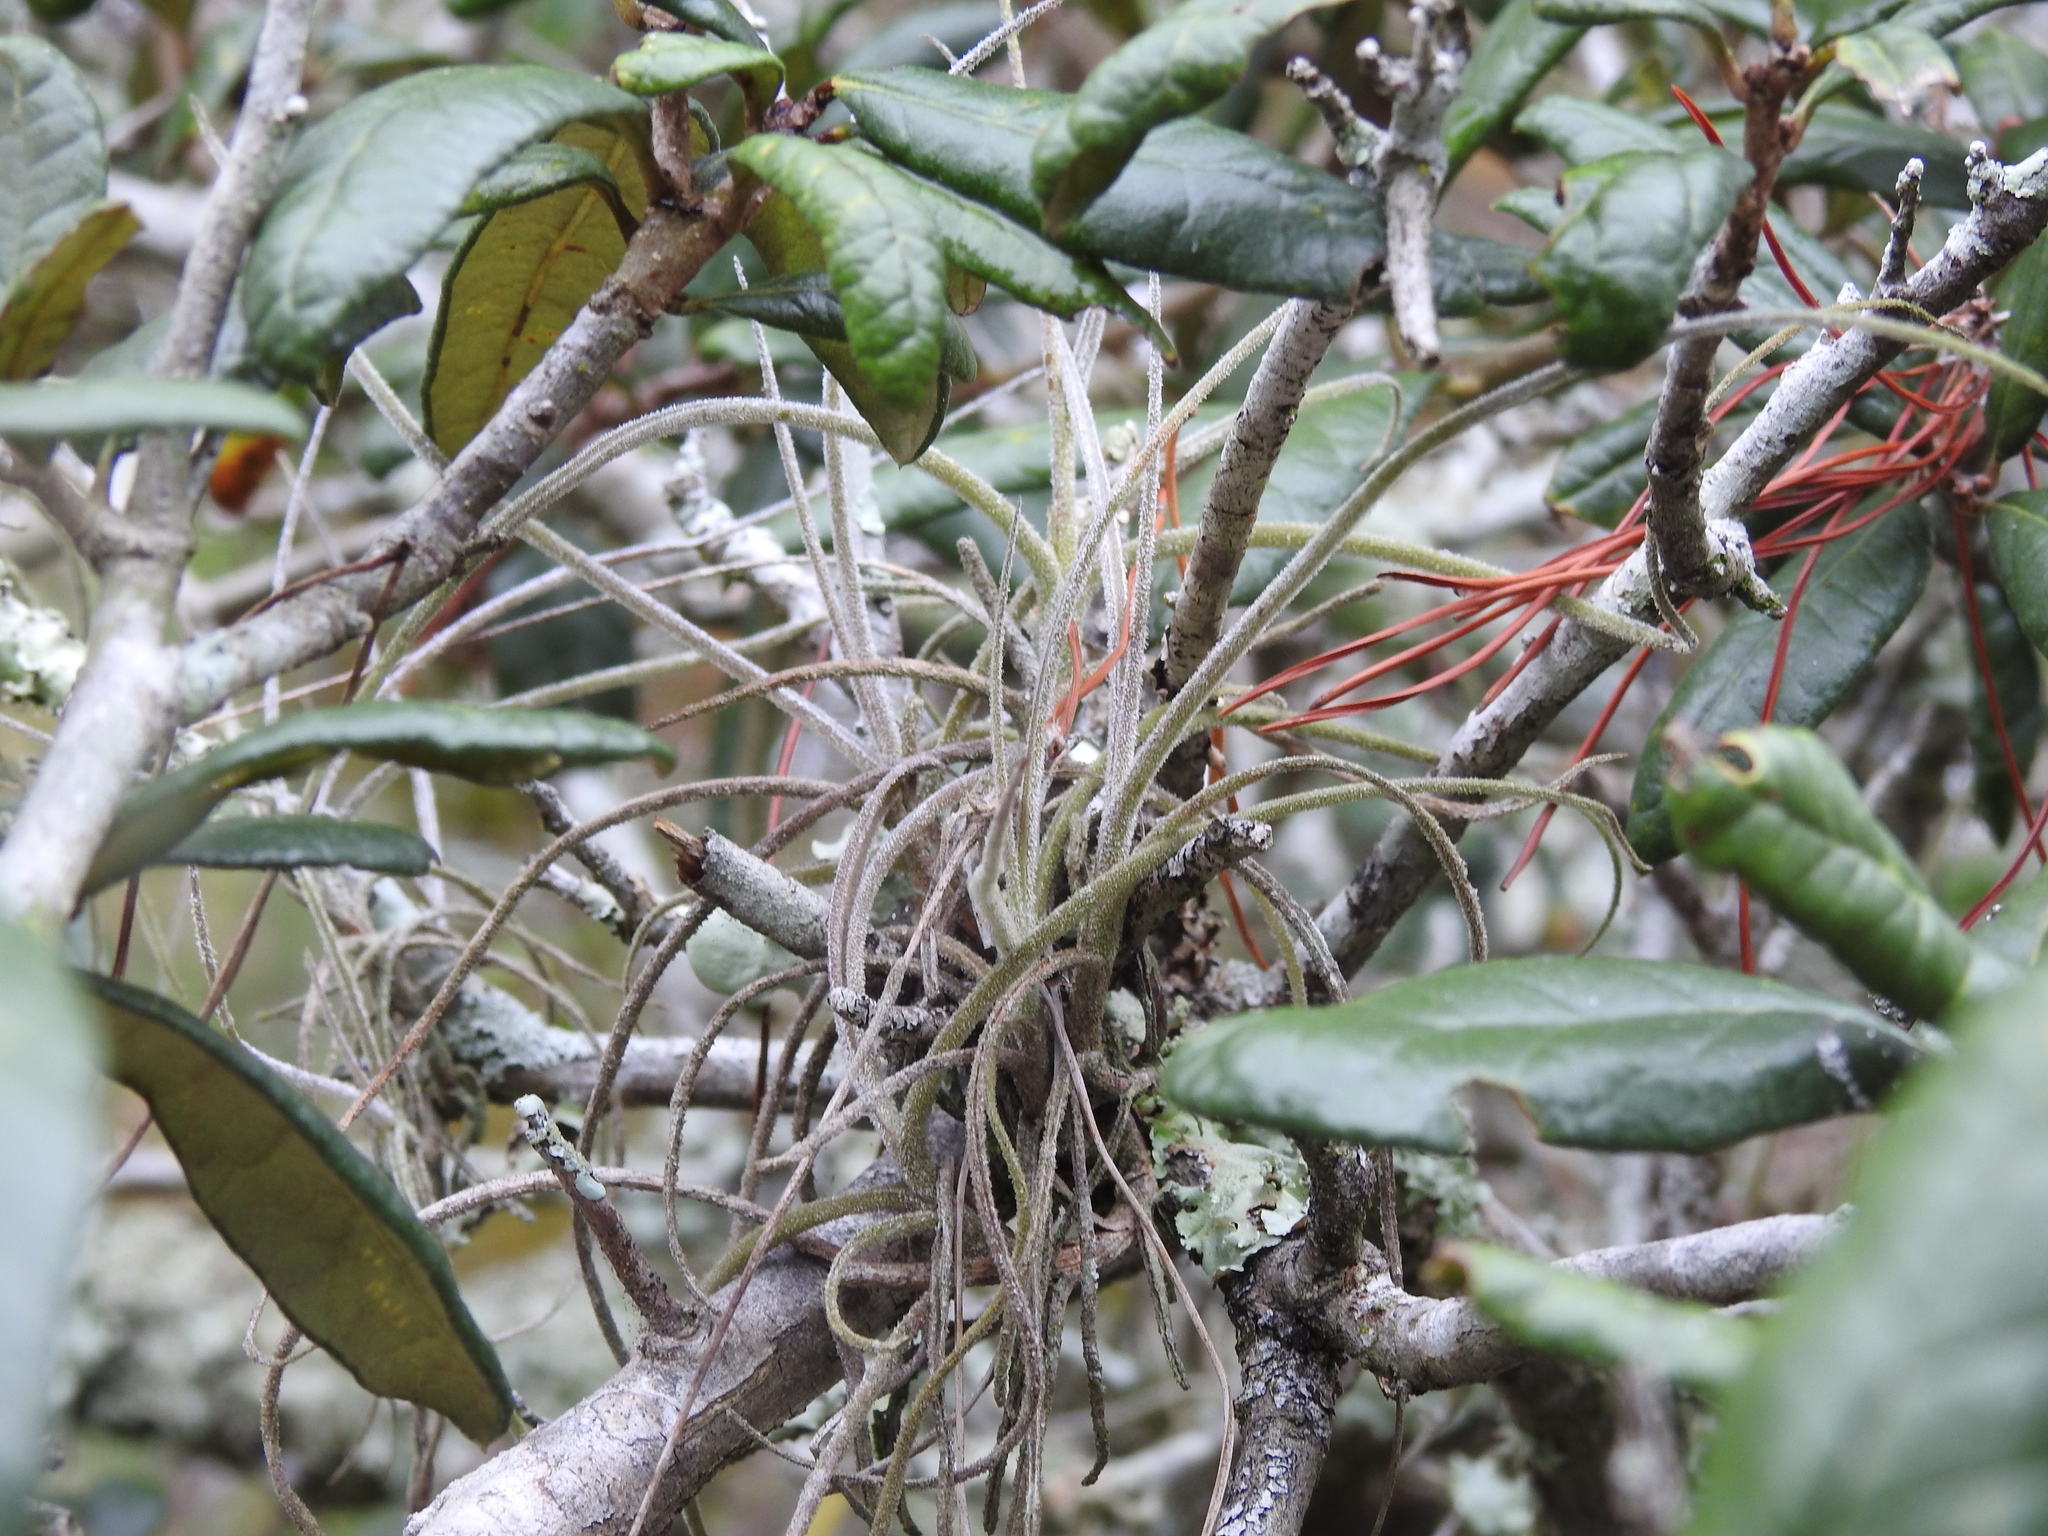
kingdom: Plantae
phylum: Tracheophyta
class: Liliopsida
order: Poales
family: Bromeliaceae
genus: Tillandsia
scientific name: Tillandsia recurvata
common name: Small ballmoss
